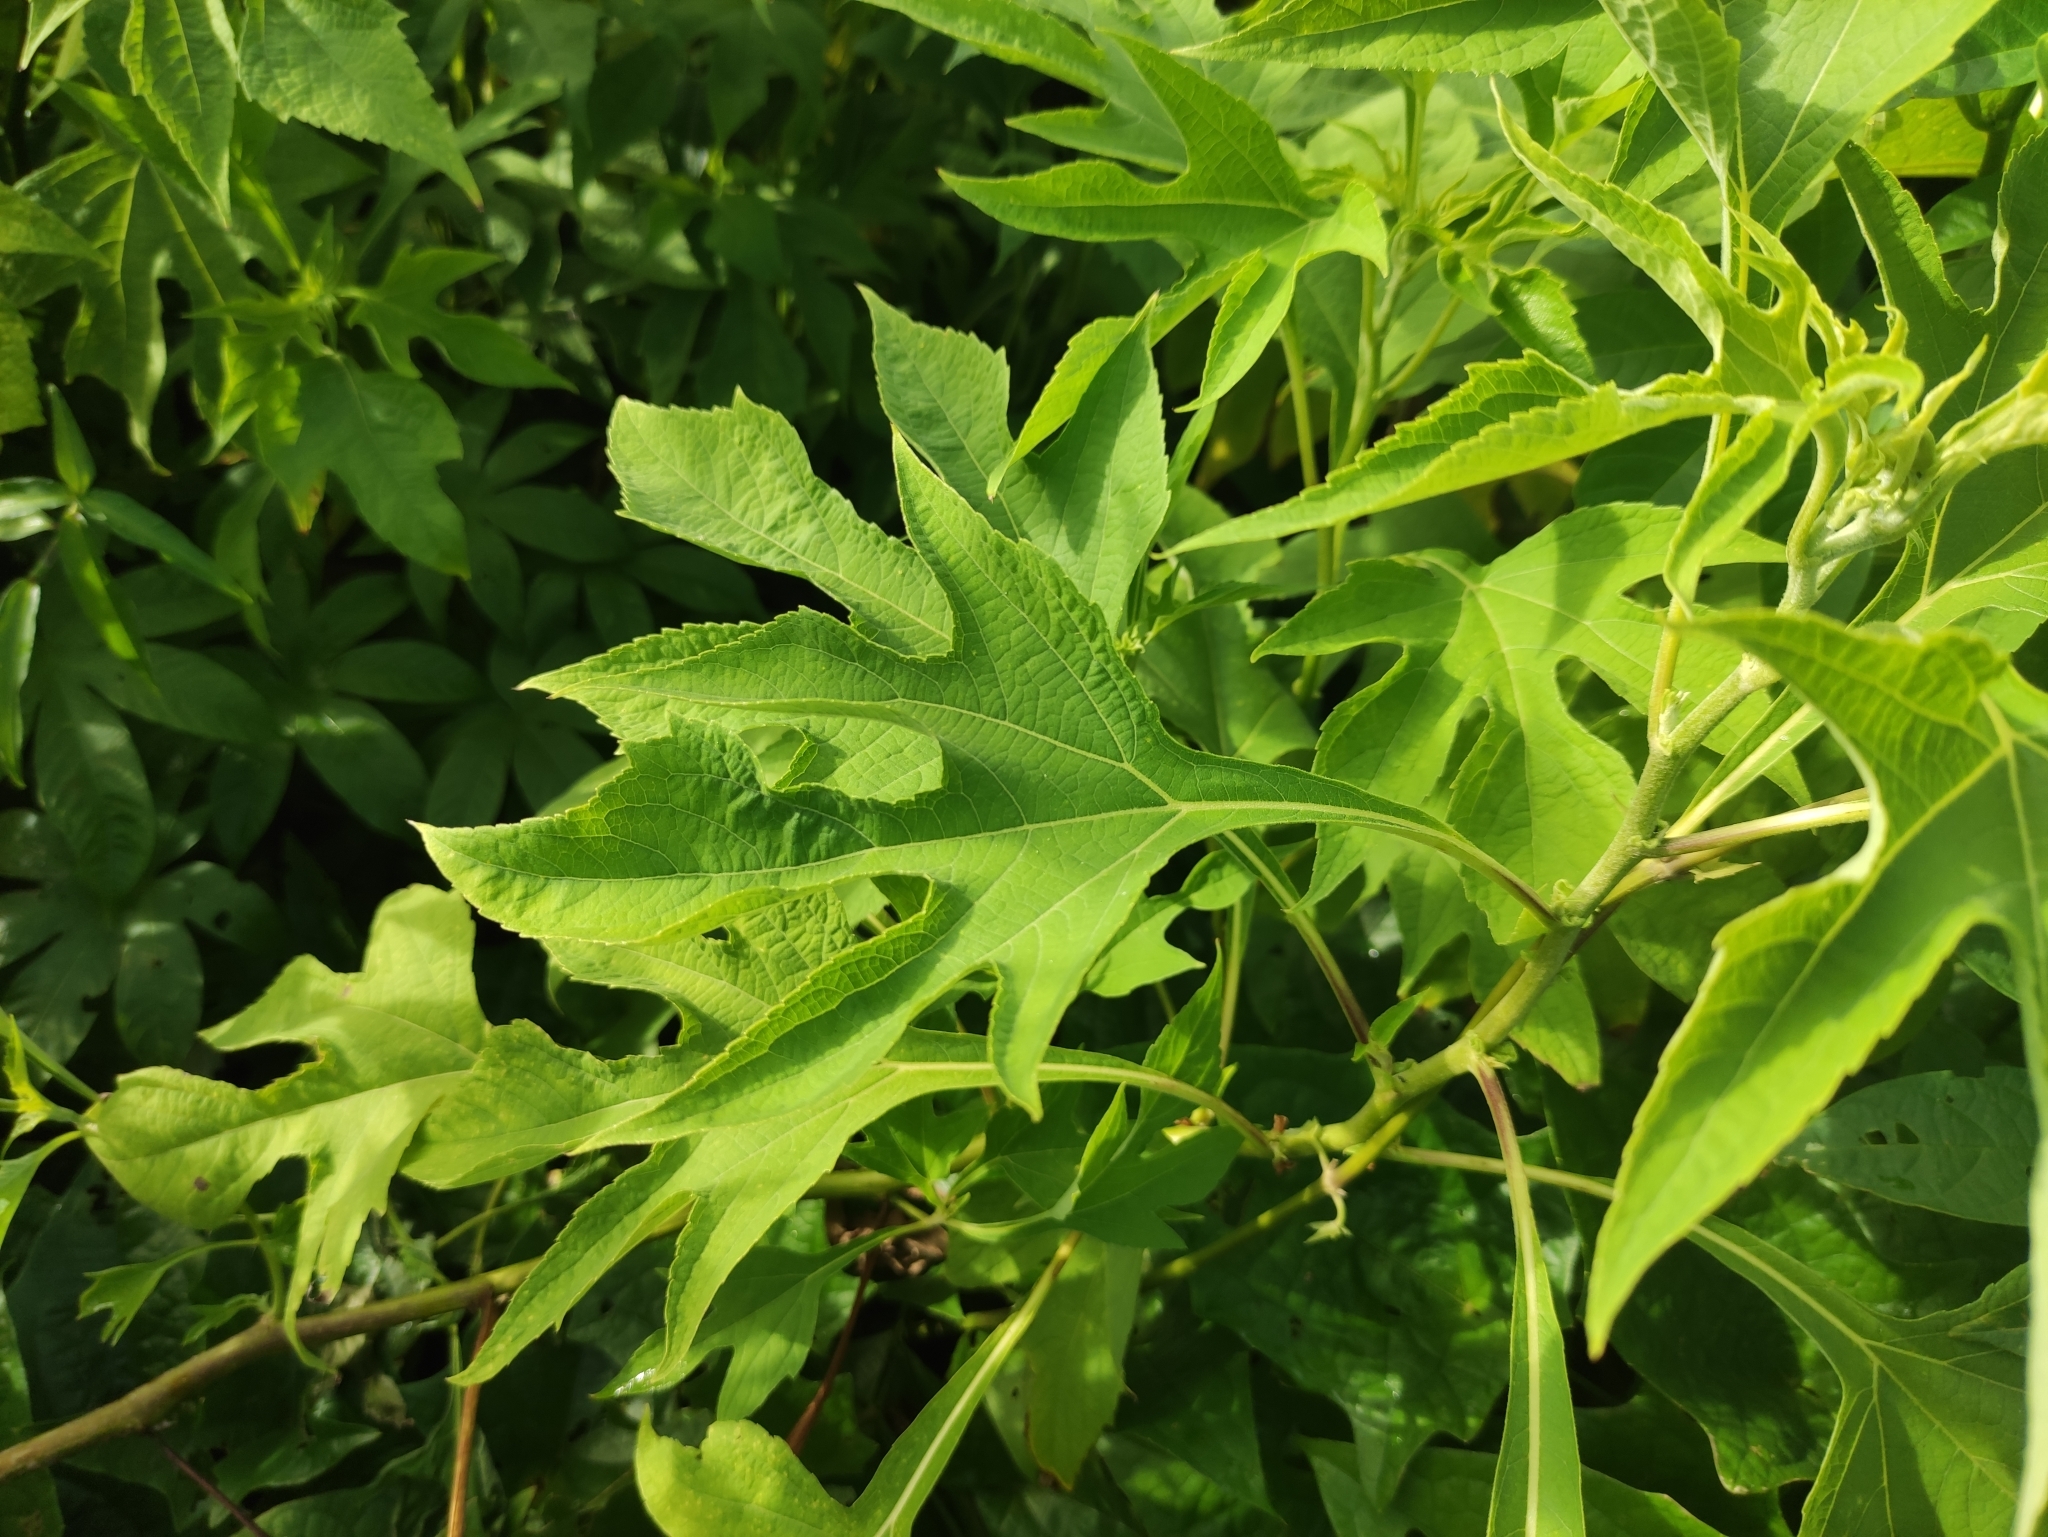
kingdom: Plantae
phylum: Tracheophyta
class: Magnoliopsida
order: Asterales
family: Asteraceae
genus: Tithonia
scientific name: Tithonia diversifolia
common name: Tree marigold
